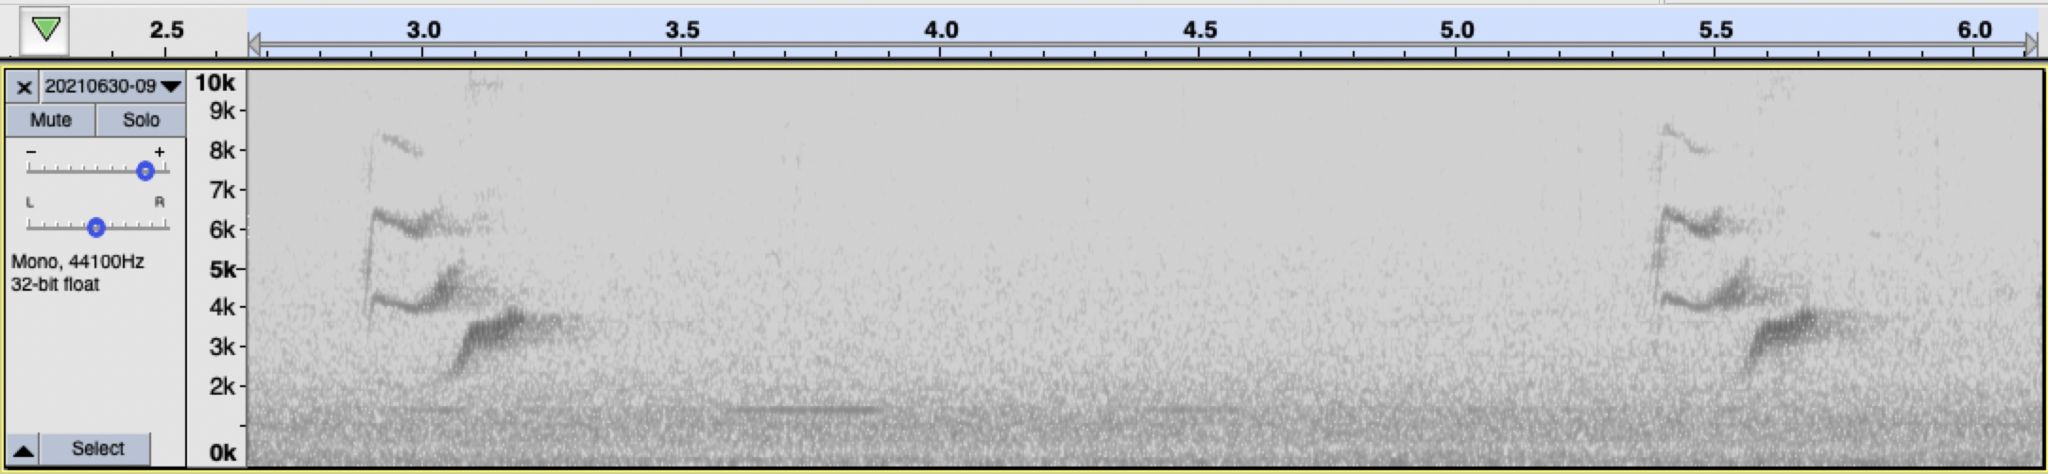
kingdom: Animalia
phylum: Chordata
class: Aves
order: Passeriformes
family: Vireonidae
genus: Vireo
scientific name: Vireo huttoni
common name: Hutton's vireo
